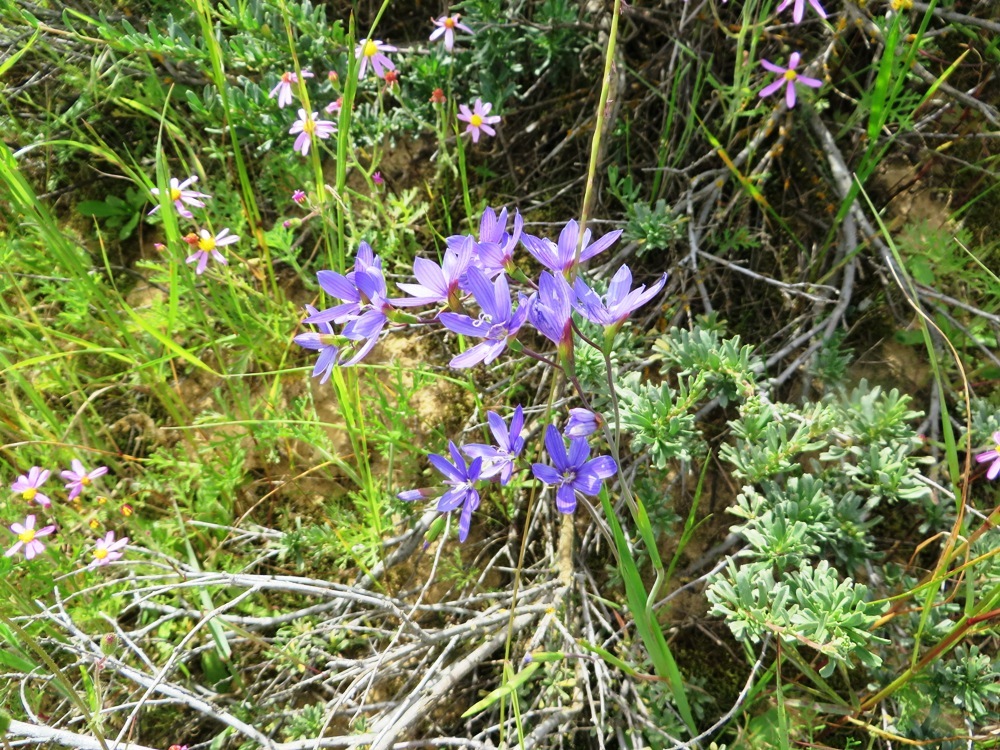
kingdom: Plantae
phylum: Tracheophyta
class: Liliopsida
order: Asparagales
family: Iridaceae
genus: Geissorhiza
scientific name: Geissorhiza aspera
